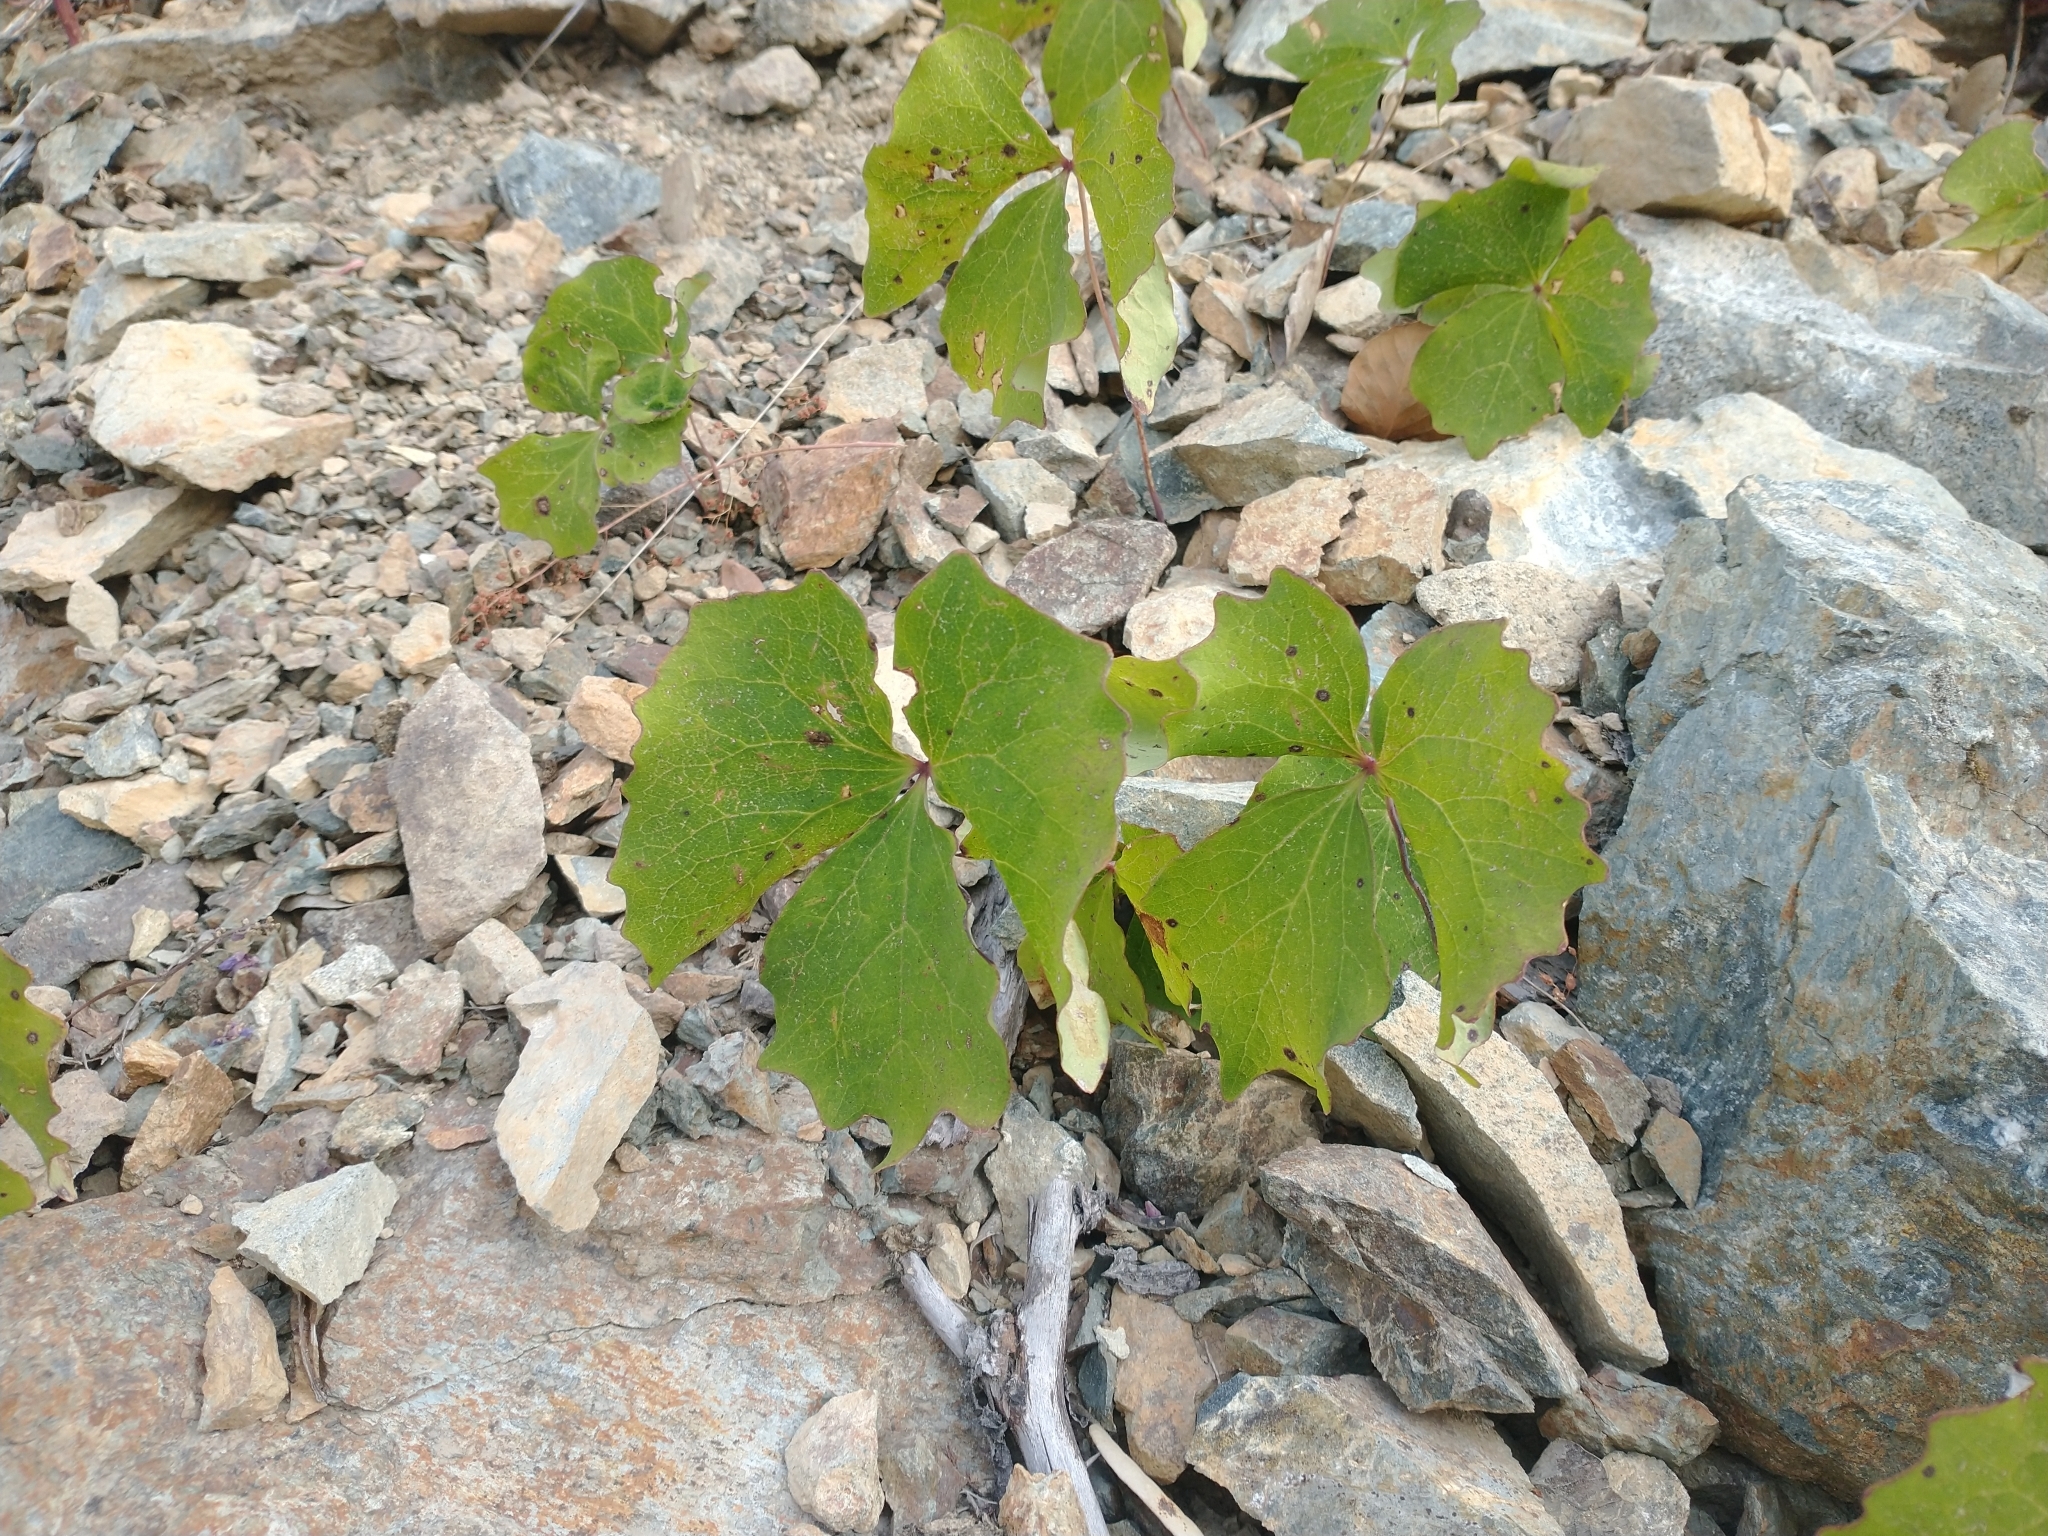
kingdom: Plantae
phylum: Tracheophyta
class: Magnoliopsida
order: Ranunculales
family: Berberidaceae
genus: Achlys
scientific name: Achlys triphylla
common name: Vanilla-leaf
